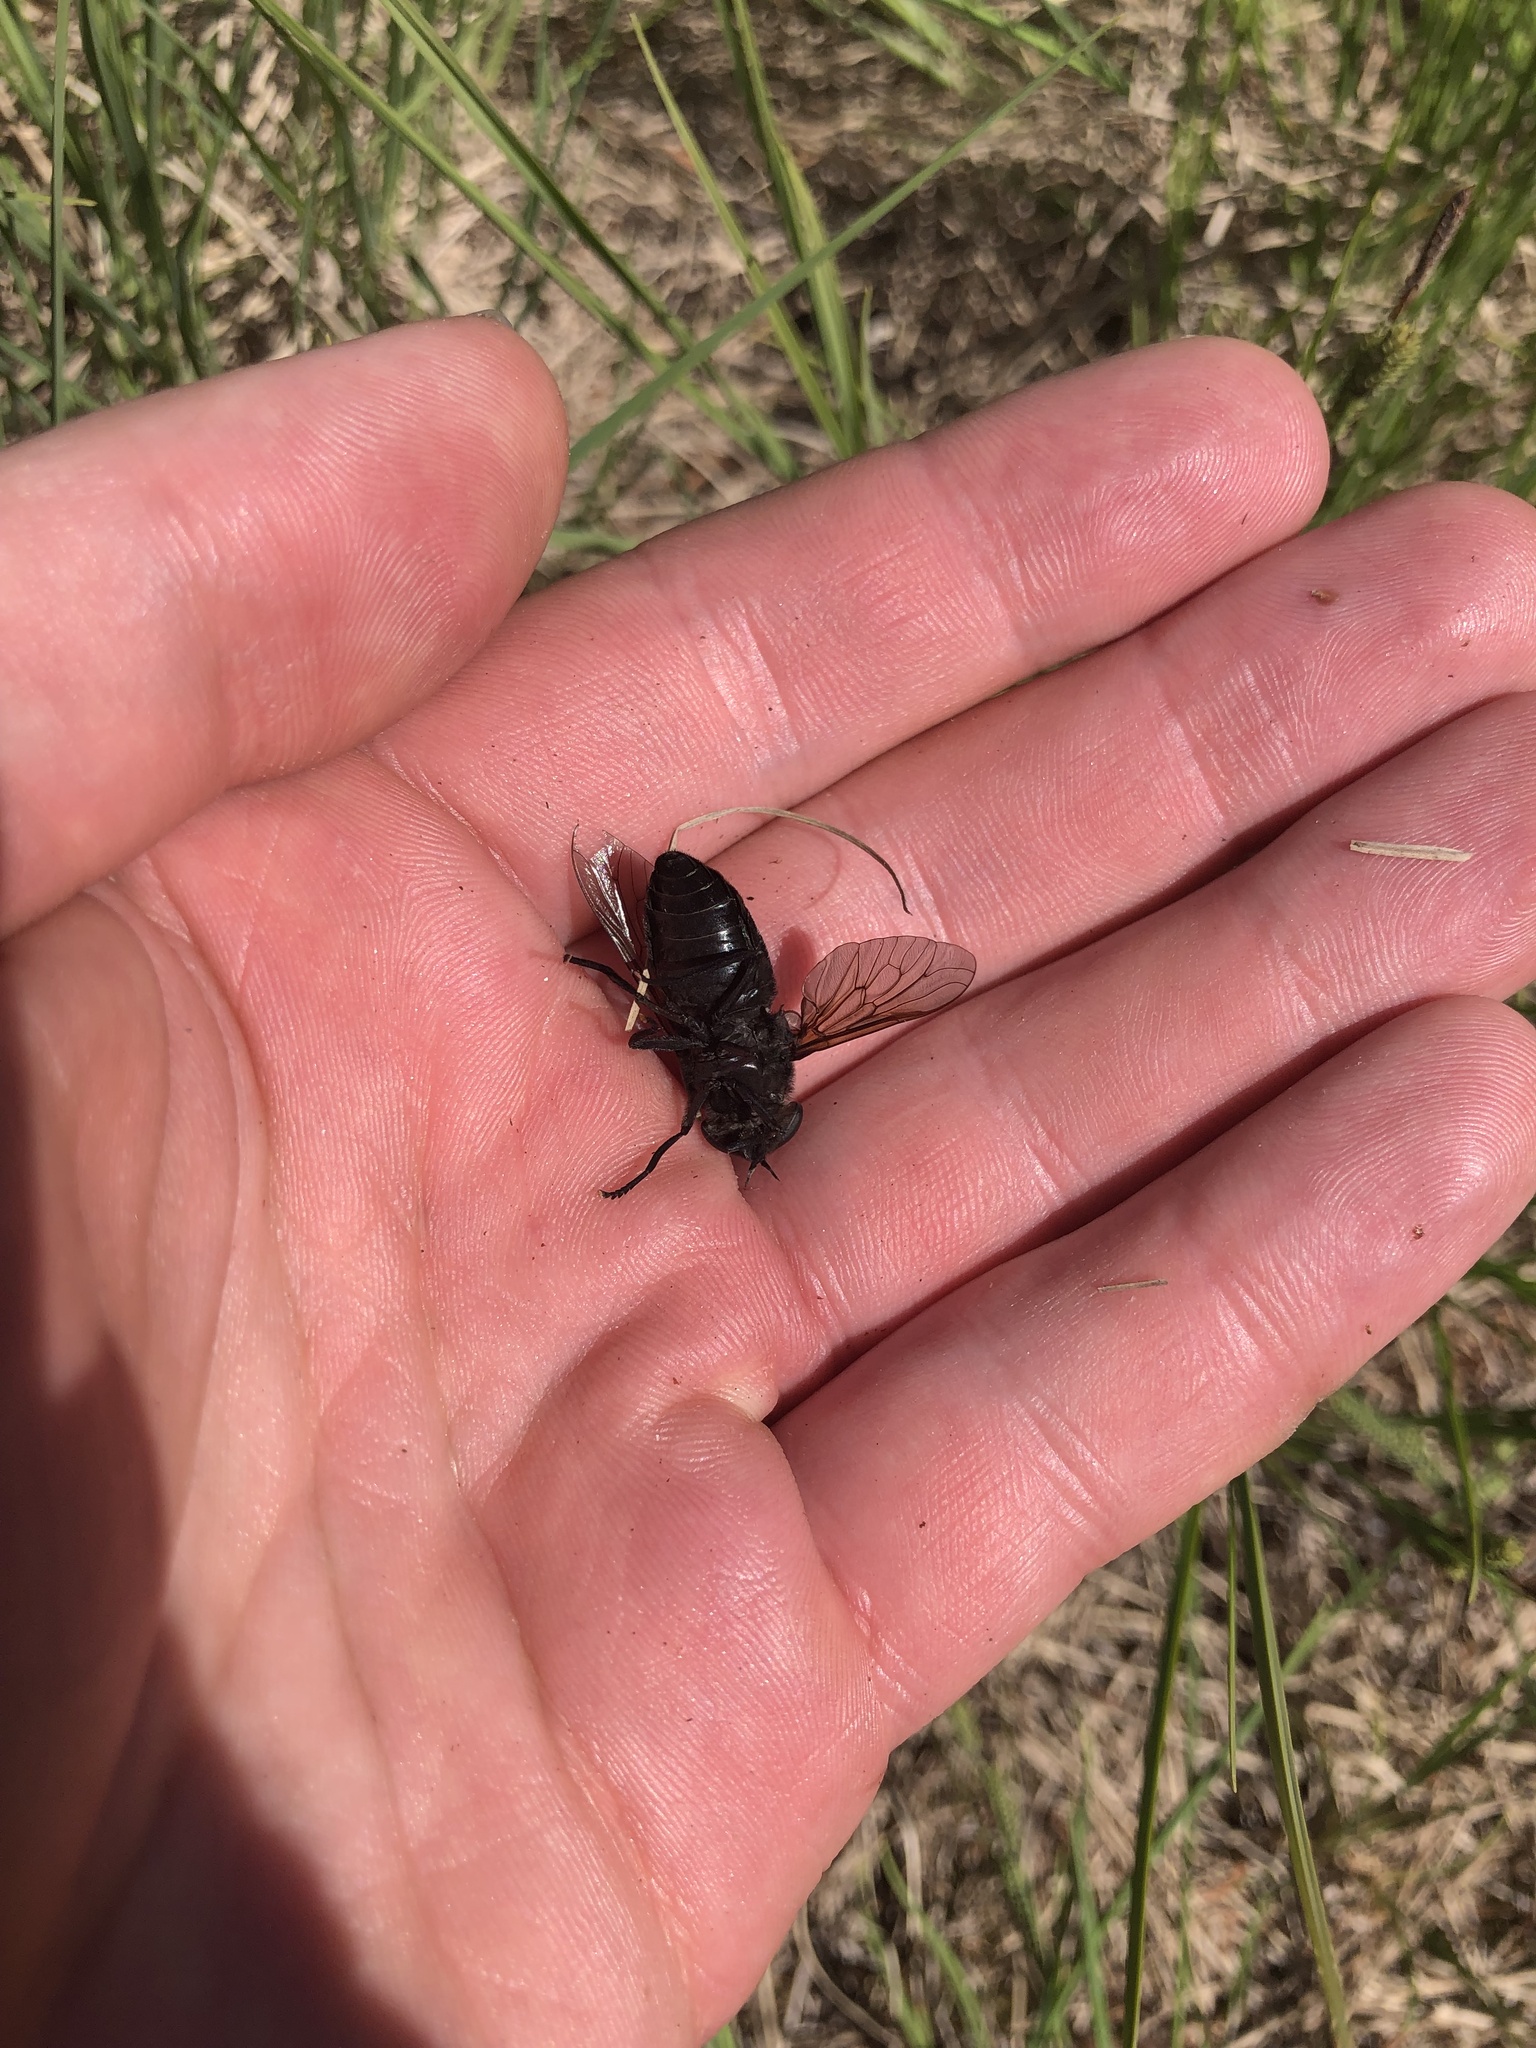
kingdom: Animalia
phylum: Arthropoda
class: Insecta
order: Diptera
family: Tabanidae
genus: Tabanus
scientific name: Tabanus punctifer
